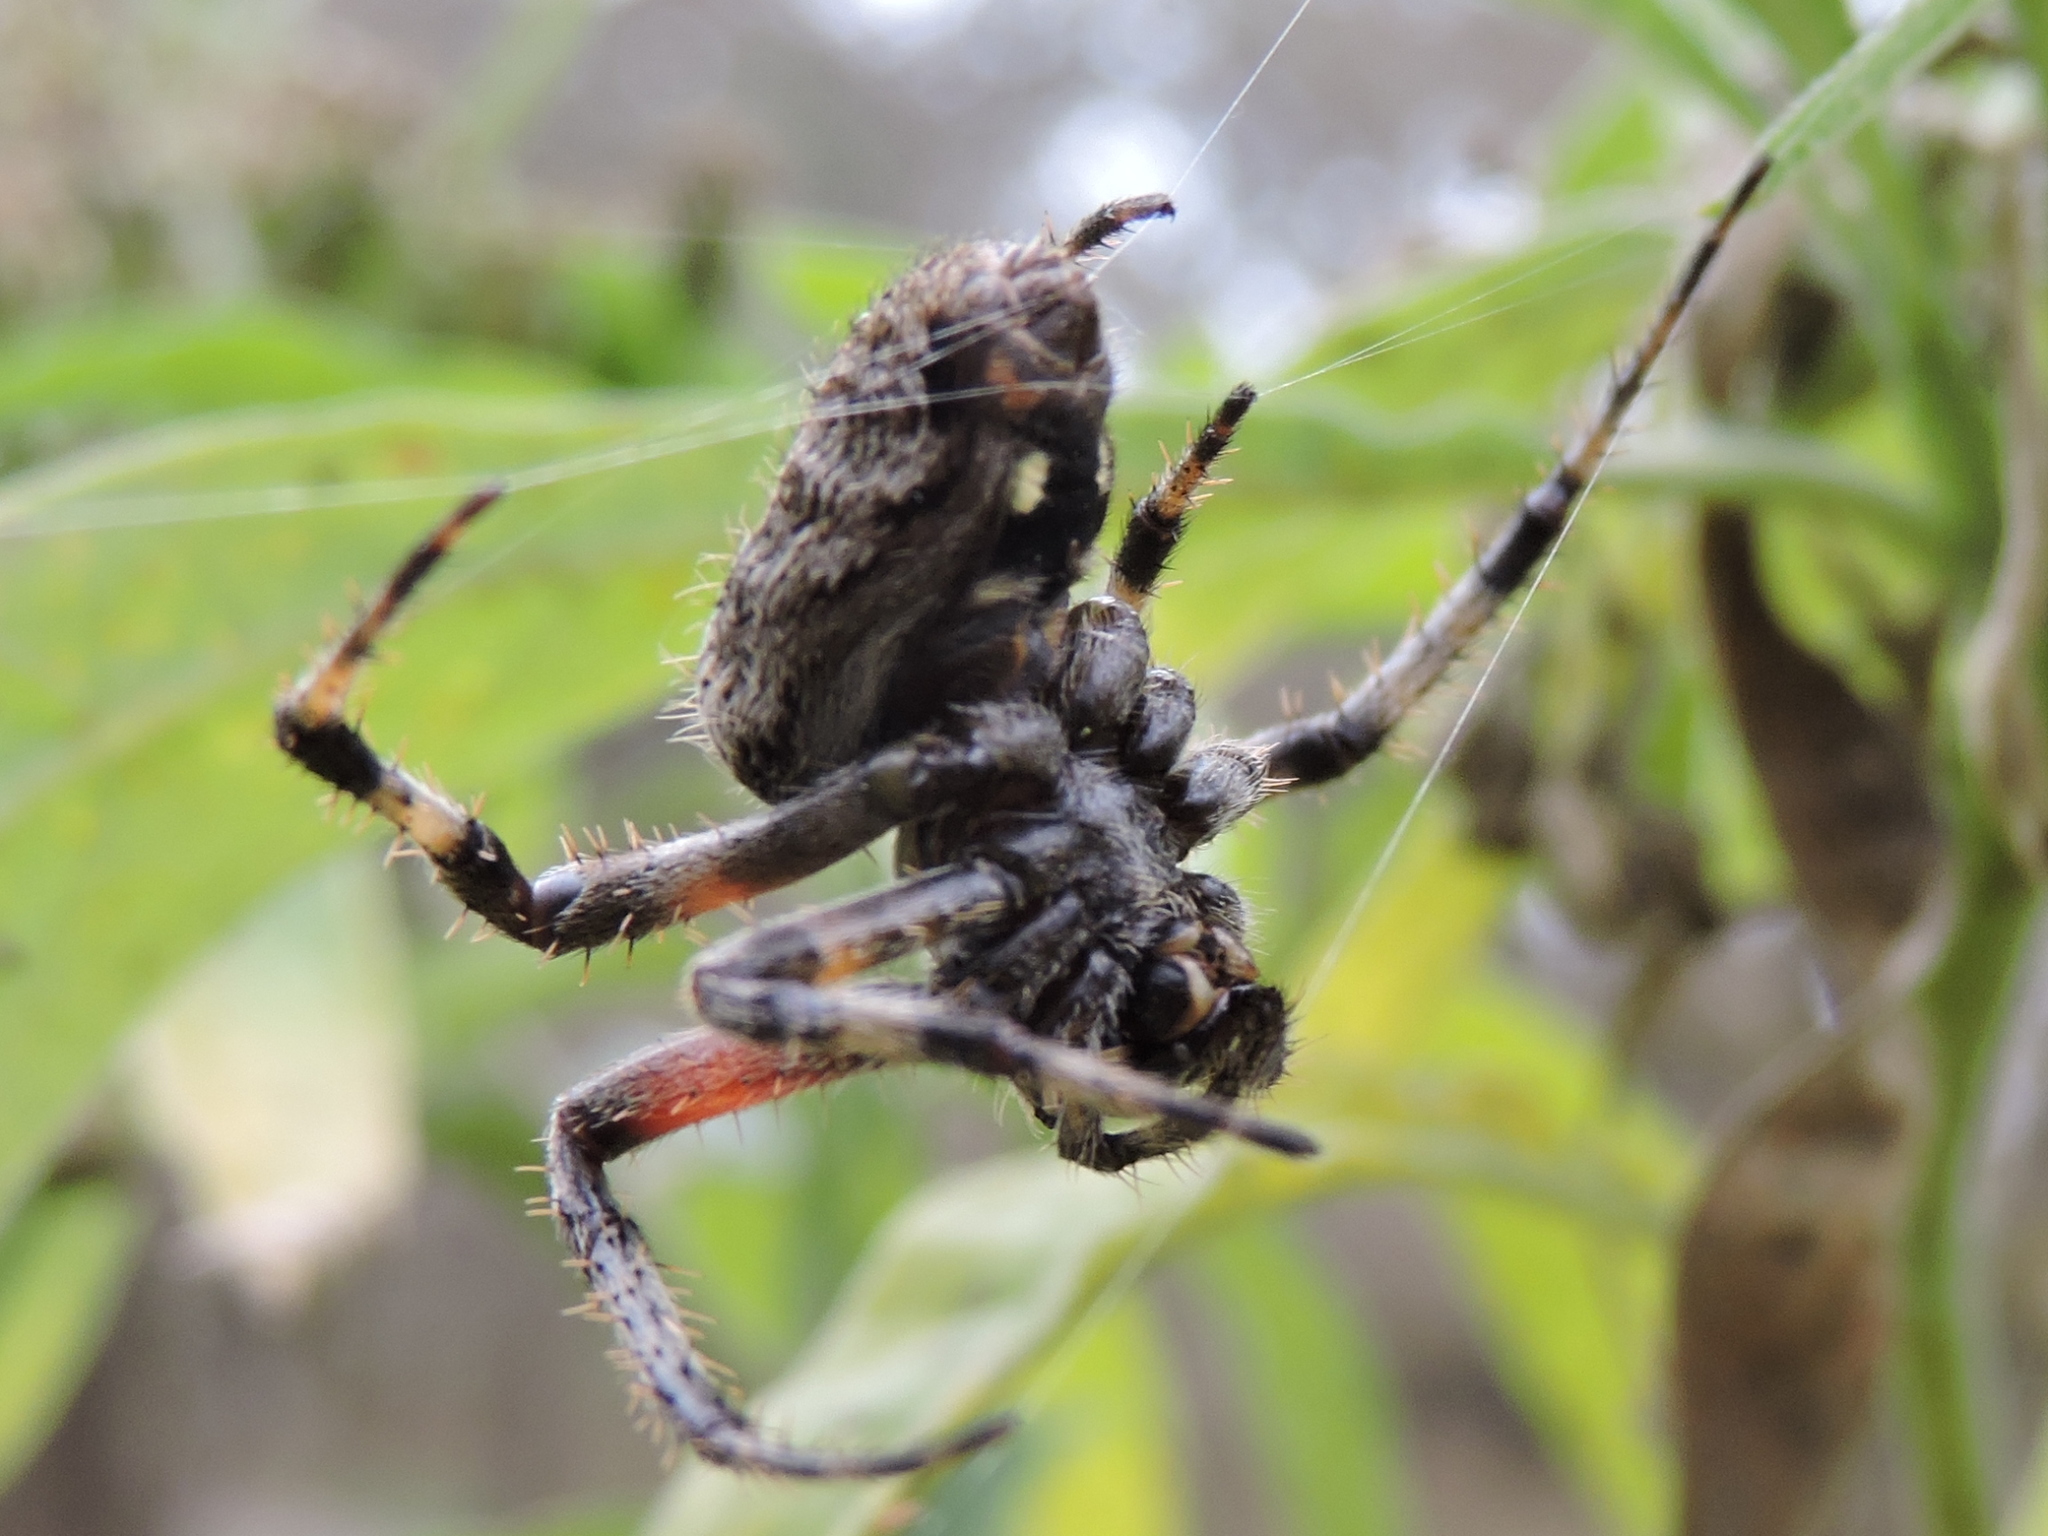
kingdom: Animalia
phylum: Arthropoda
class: Arachnida
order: Araneae
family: Araneidae
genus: Neoscona
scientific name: Neoscona crucifera
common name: Spotted orbweaver
